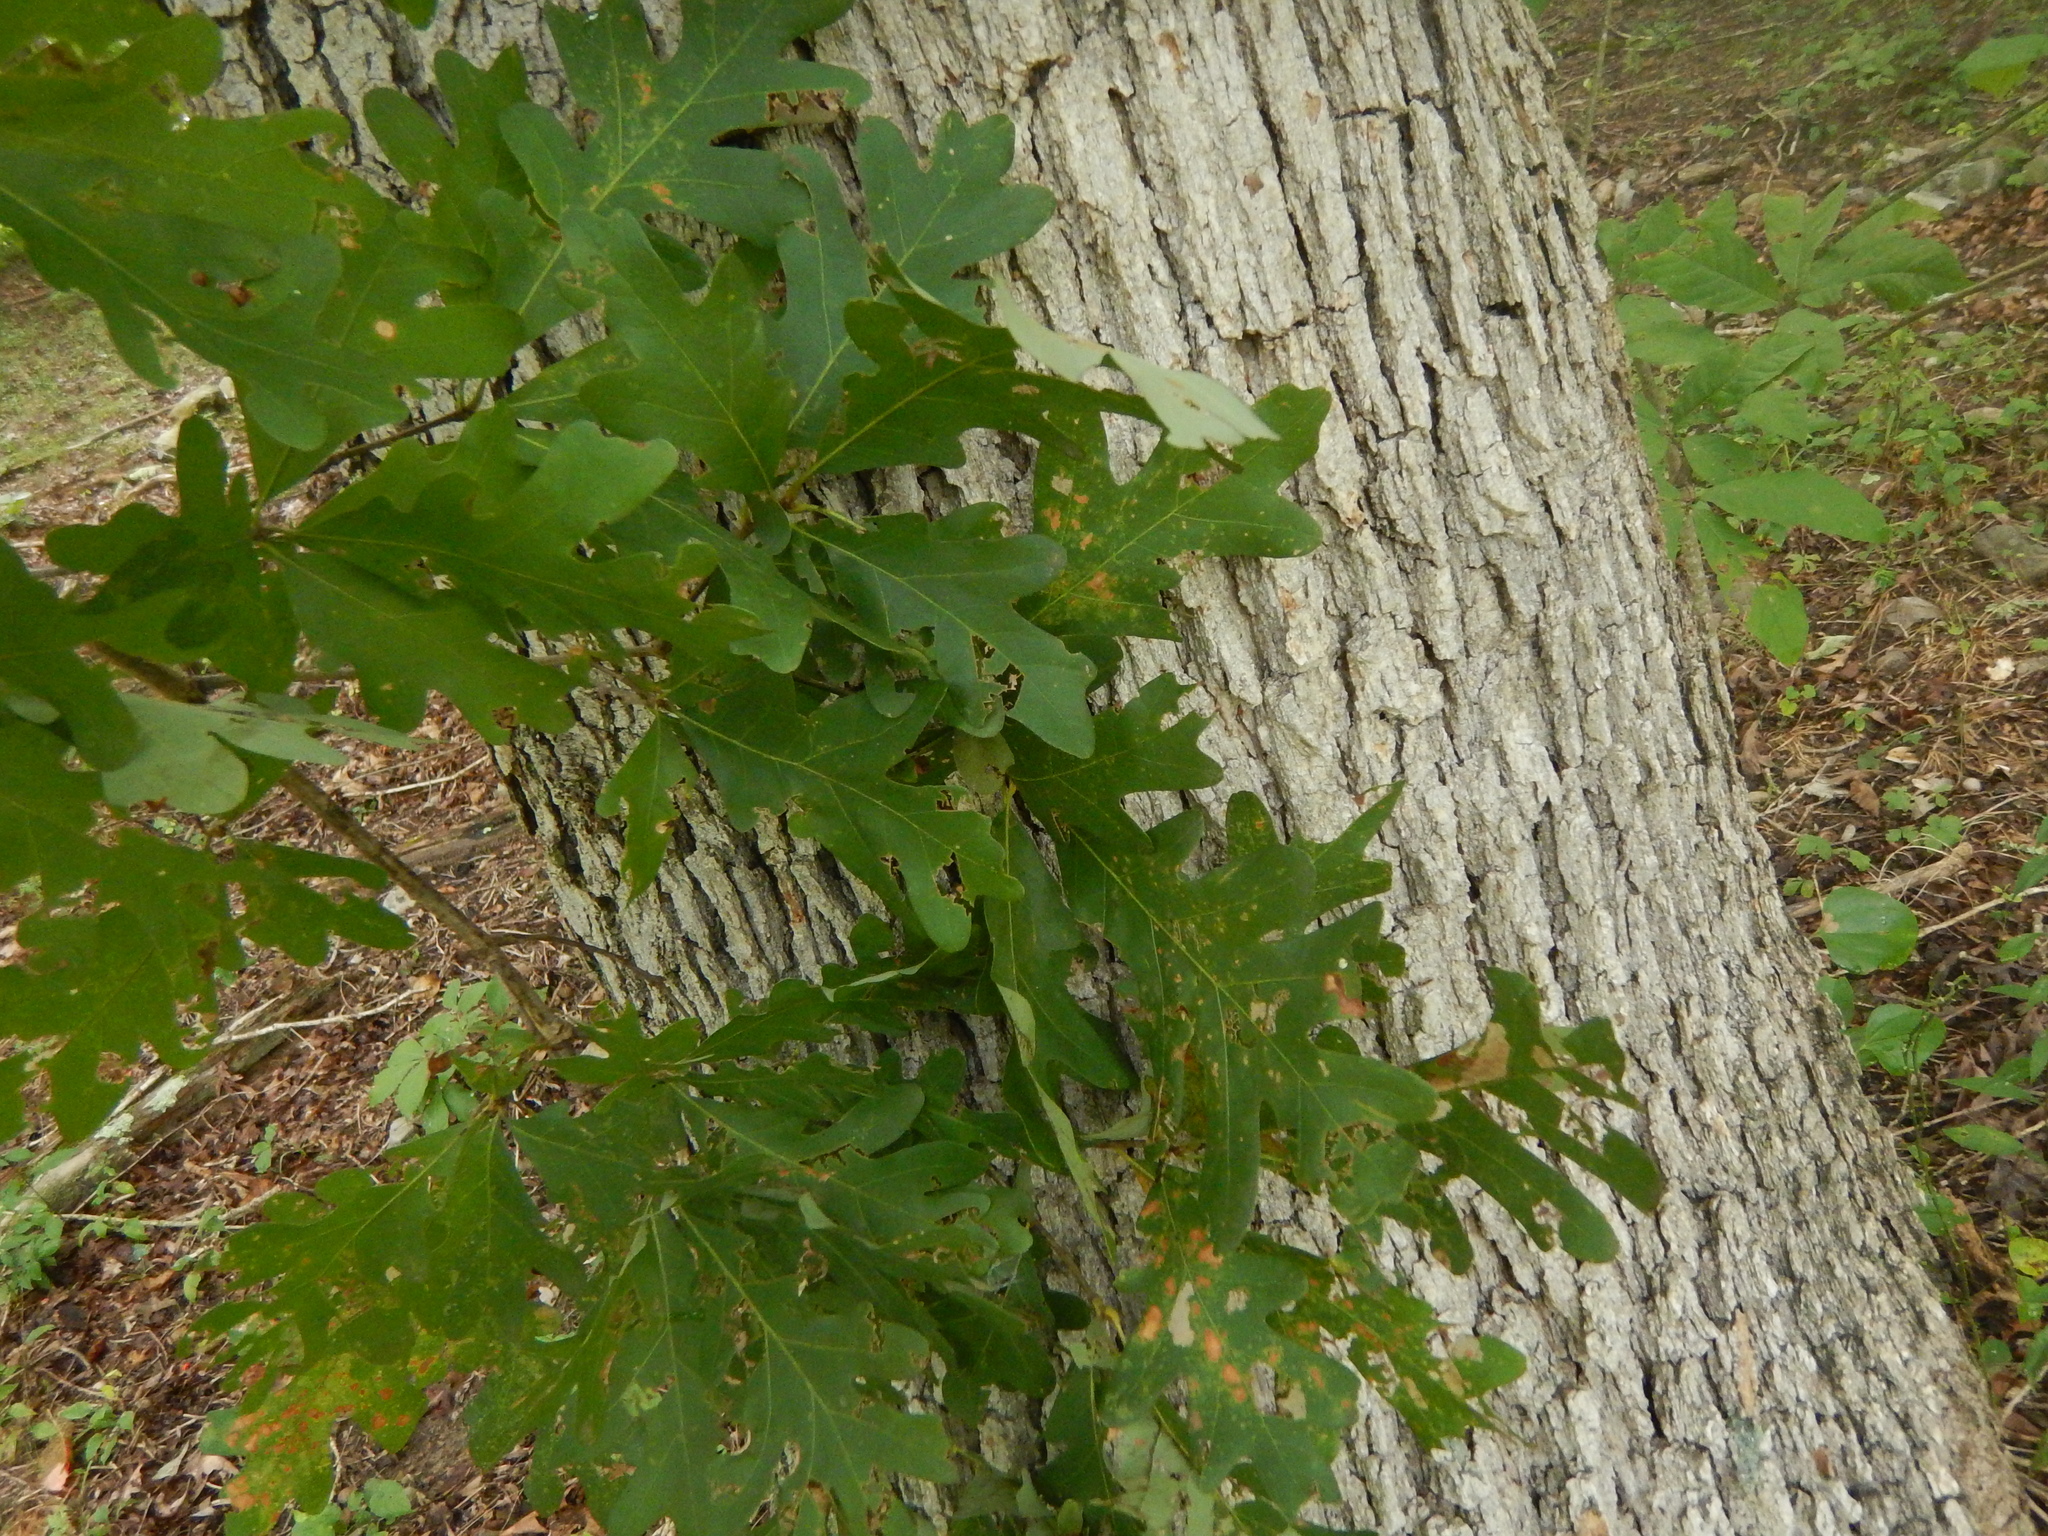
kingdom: Plantae
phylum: Tracheophyta
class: Magnoliopsida
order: Fagales
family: Fagaceae
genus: Quercus
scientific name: Quercus alba
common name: White oak
